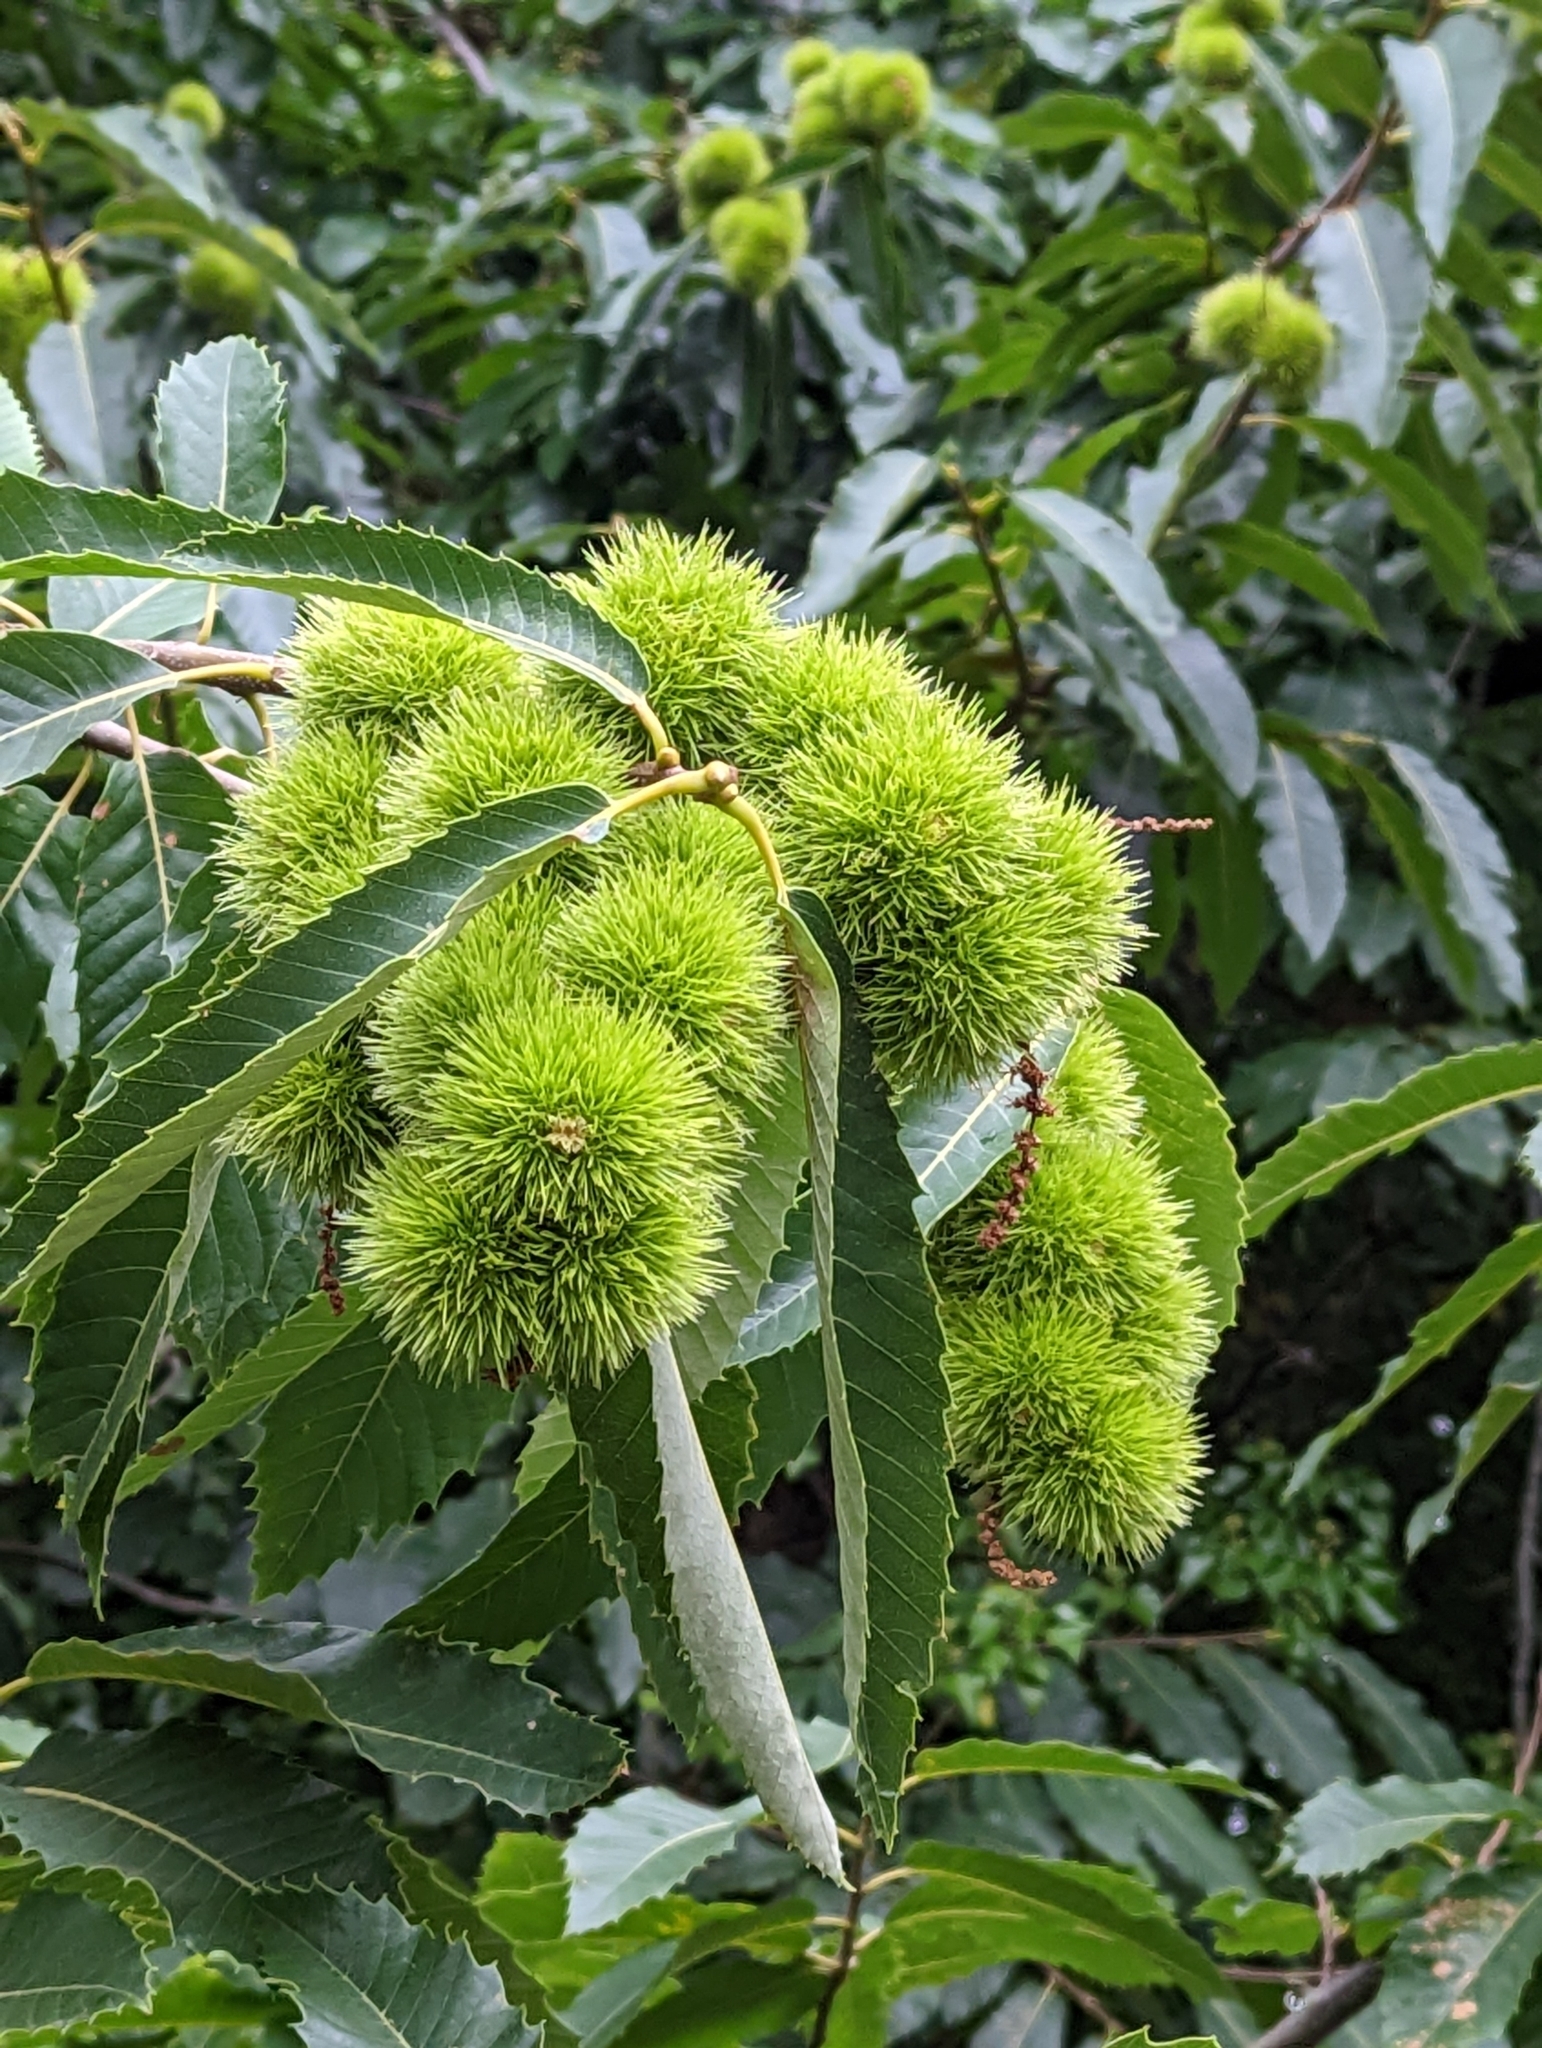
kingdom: Plantae
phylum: Tracheophyta
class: Magnoliopsida
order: Fagales
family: Fagaceae
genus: Castanea
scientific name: Castanea sativa
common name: Sweet chestnut
